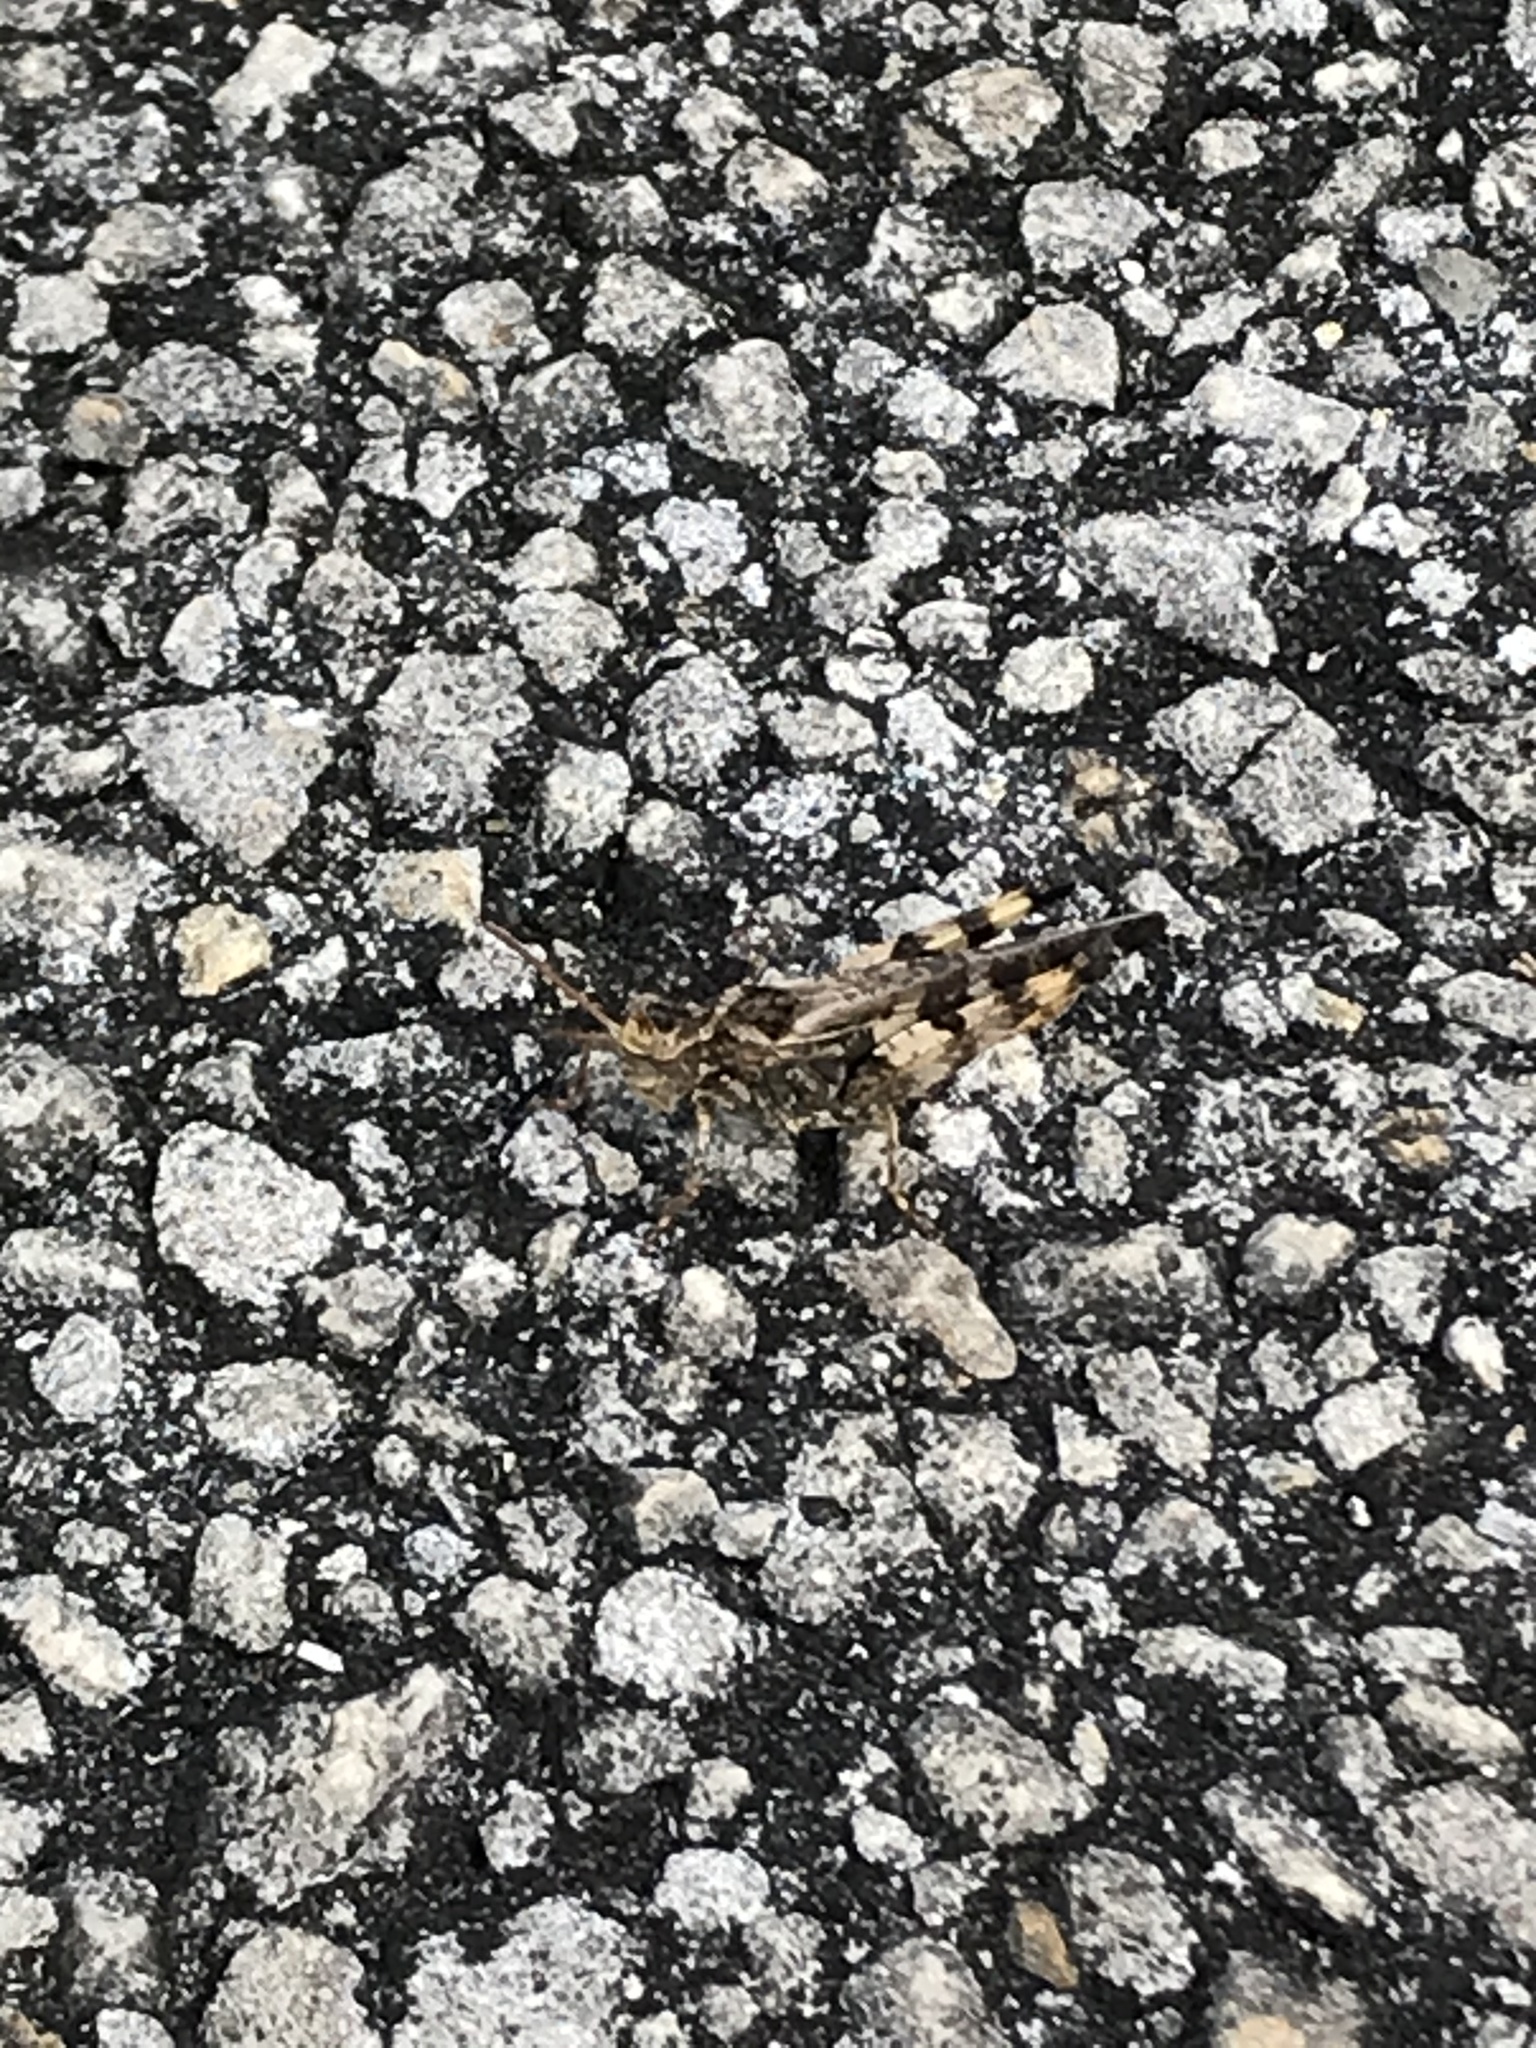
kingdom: Animalia
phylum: Arthropoda
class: Insecta
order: Orthoptera
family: Acrididae
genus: Chortophaga
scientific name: Chortophaga australior
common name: Southern green-striped grasshopper
